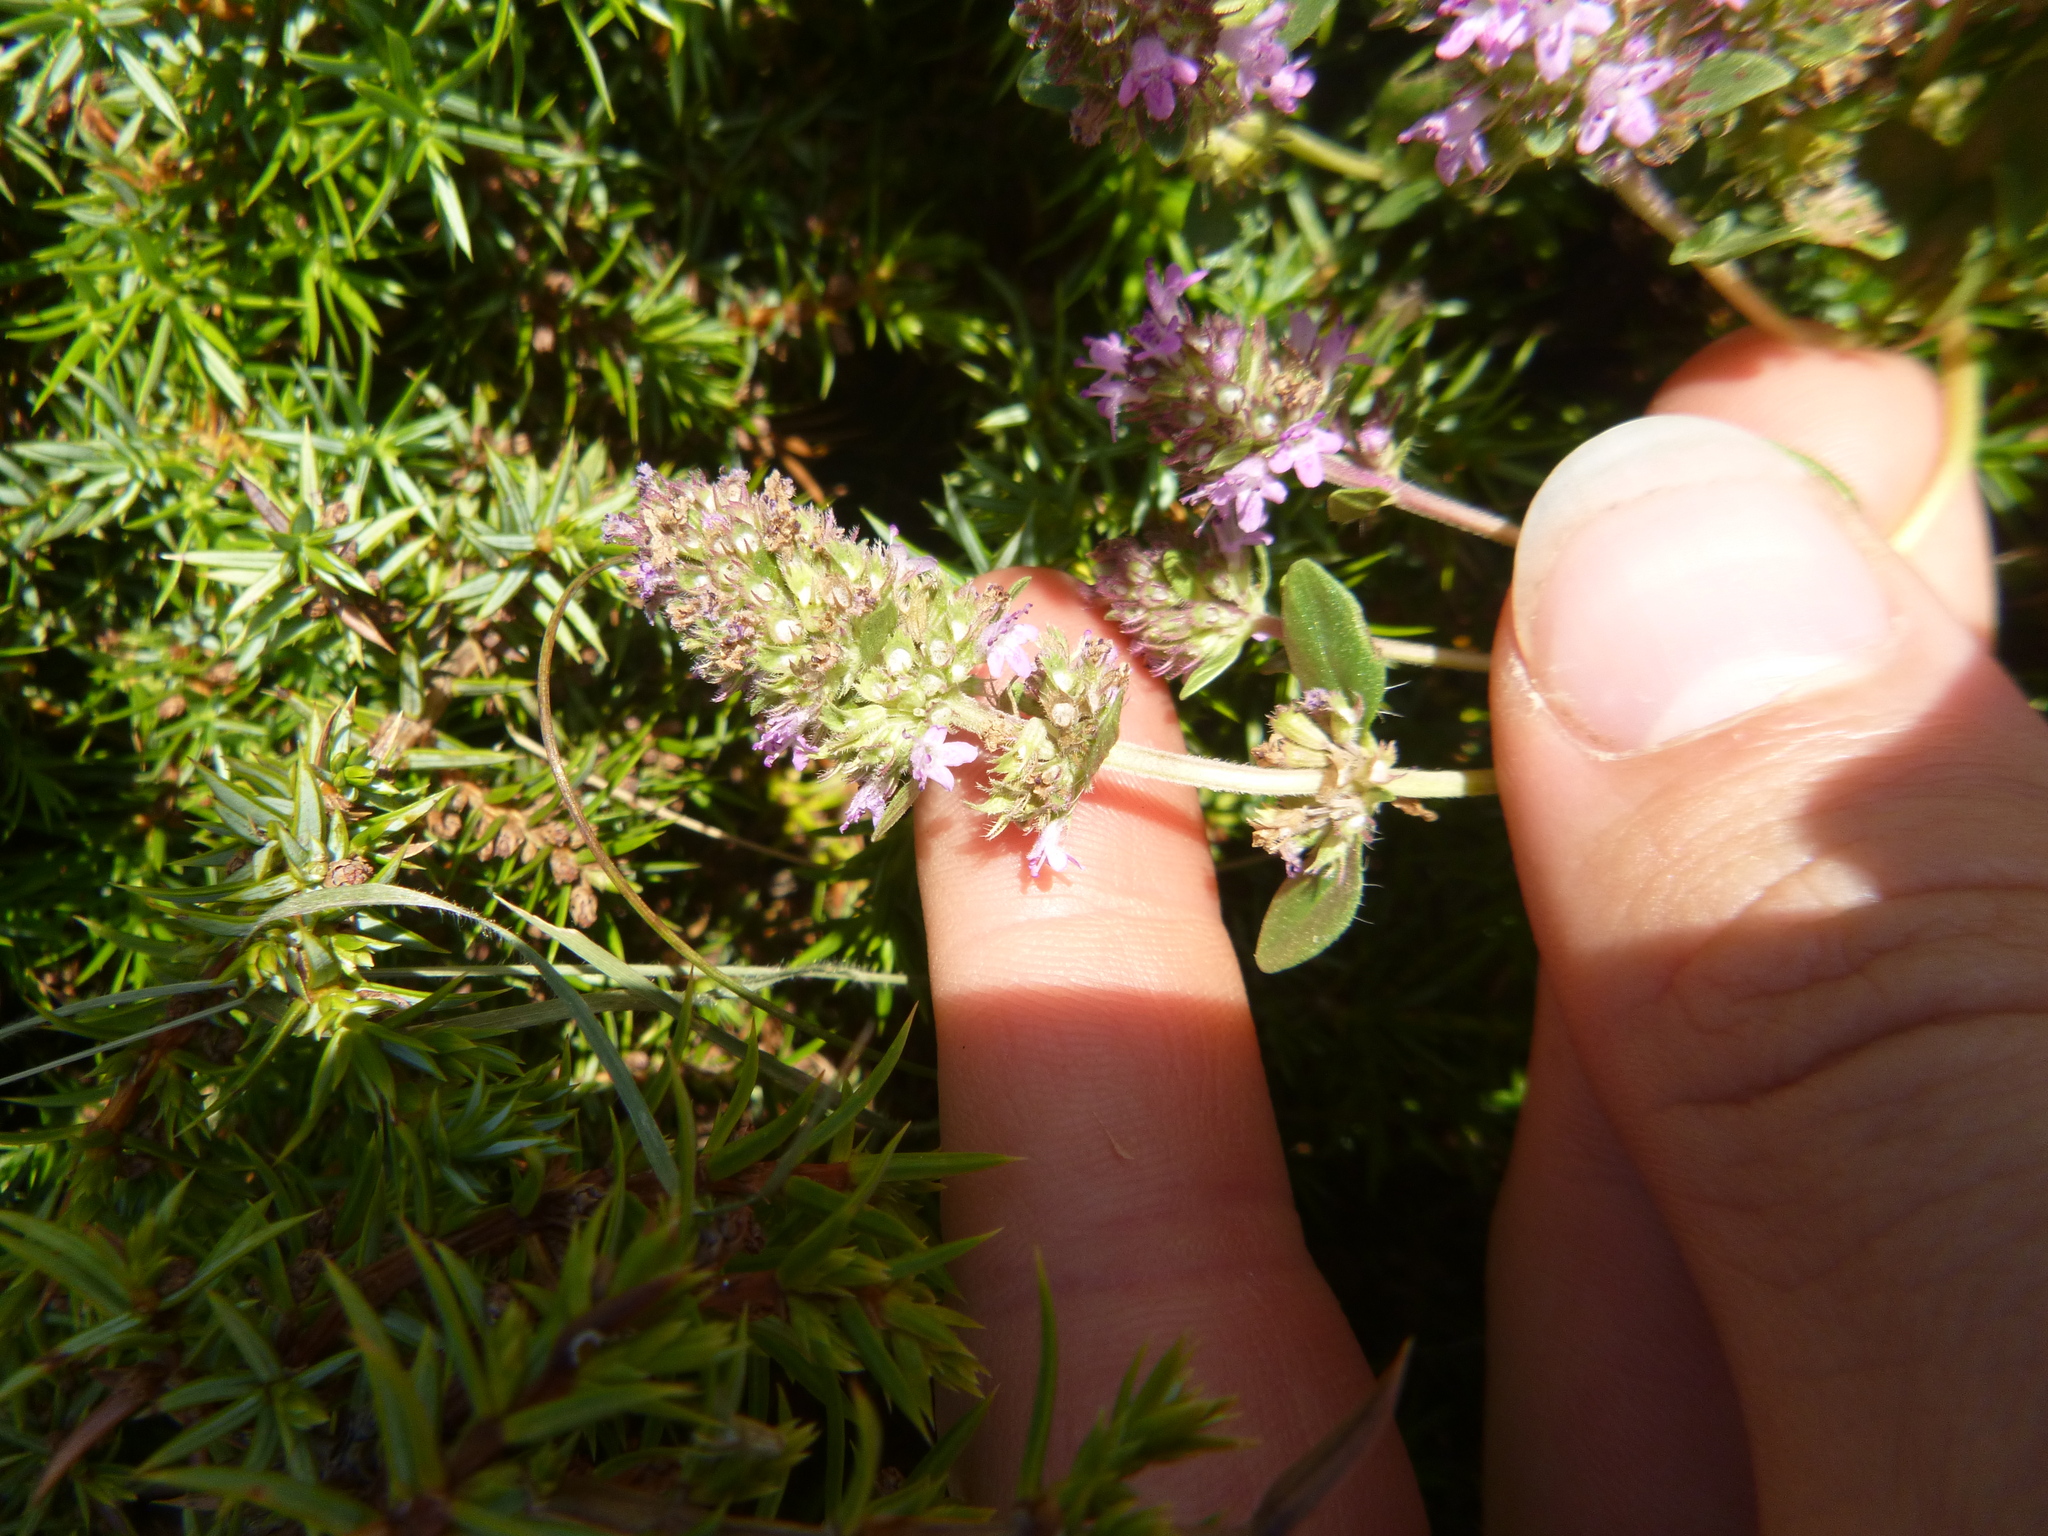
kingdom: Plantae
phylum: Tracheophyta
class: Magnoliopsida
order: Lamiales
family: Lamiaceae
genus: Thymus
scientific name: Thymus praecox
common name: Wild thyme
